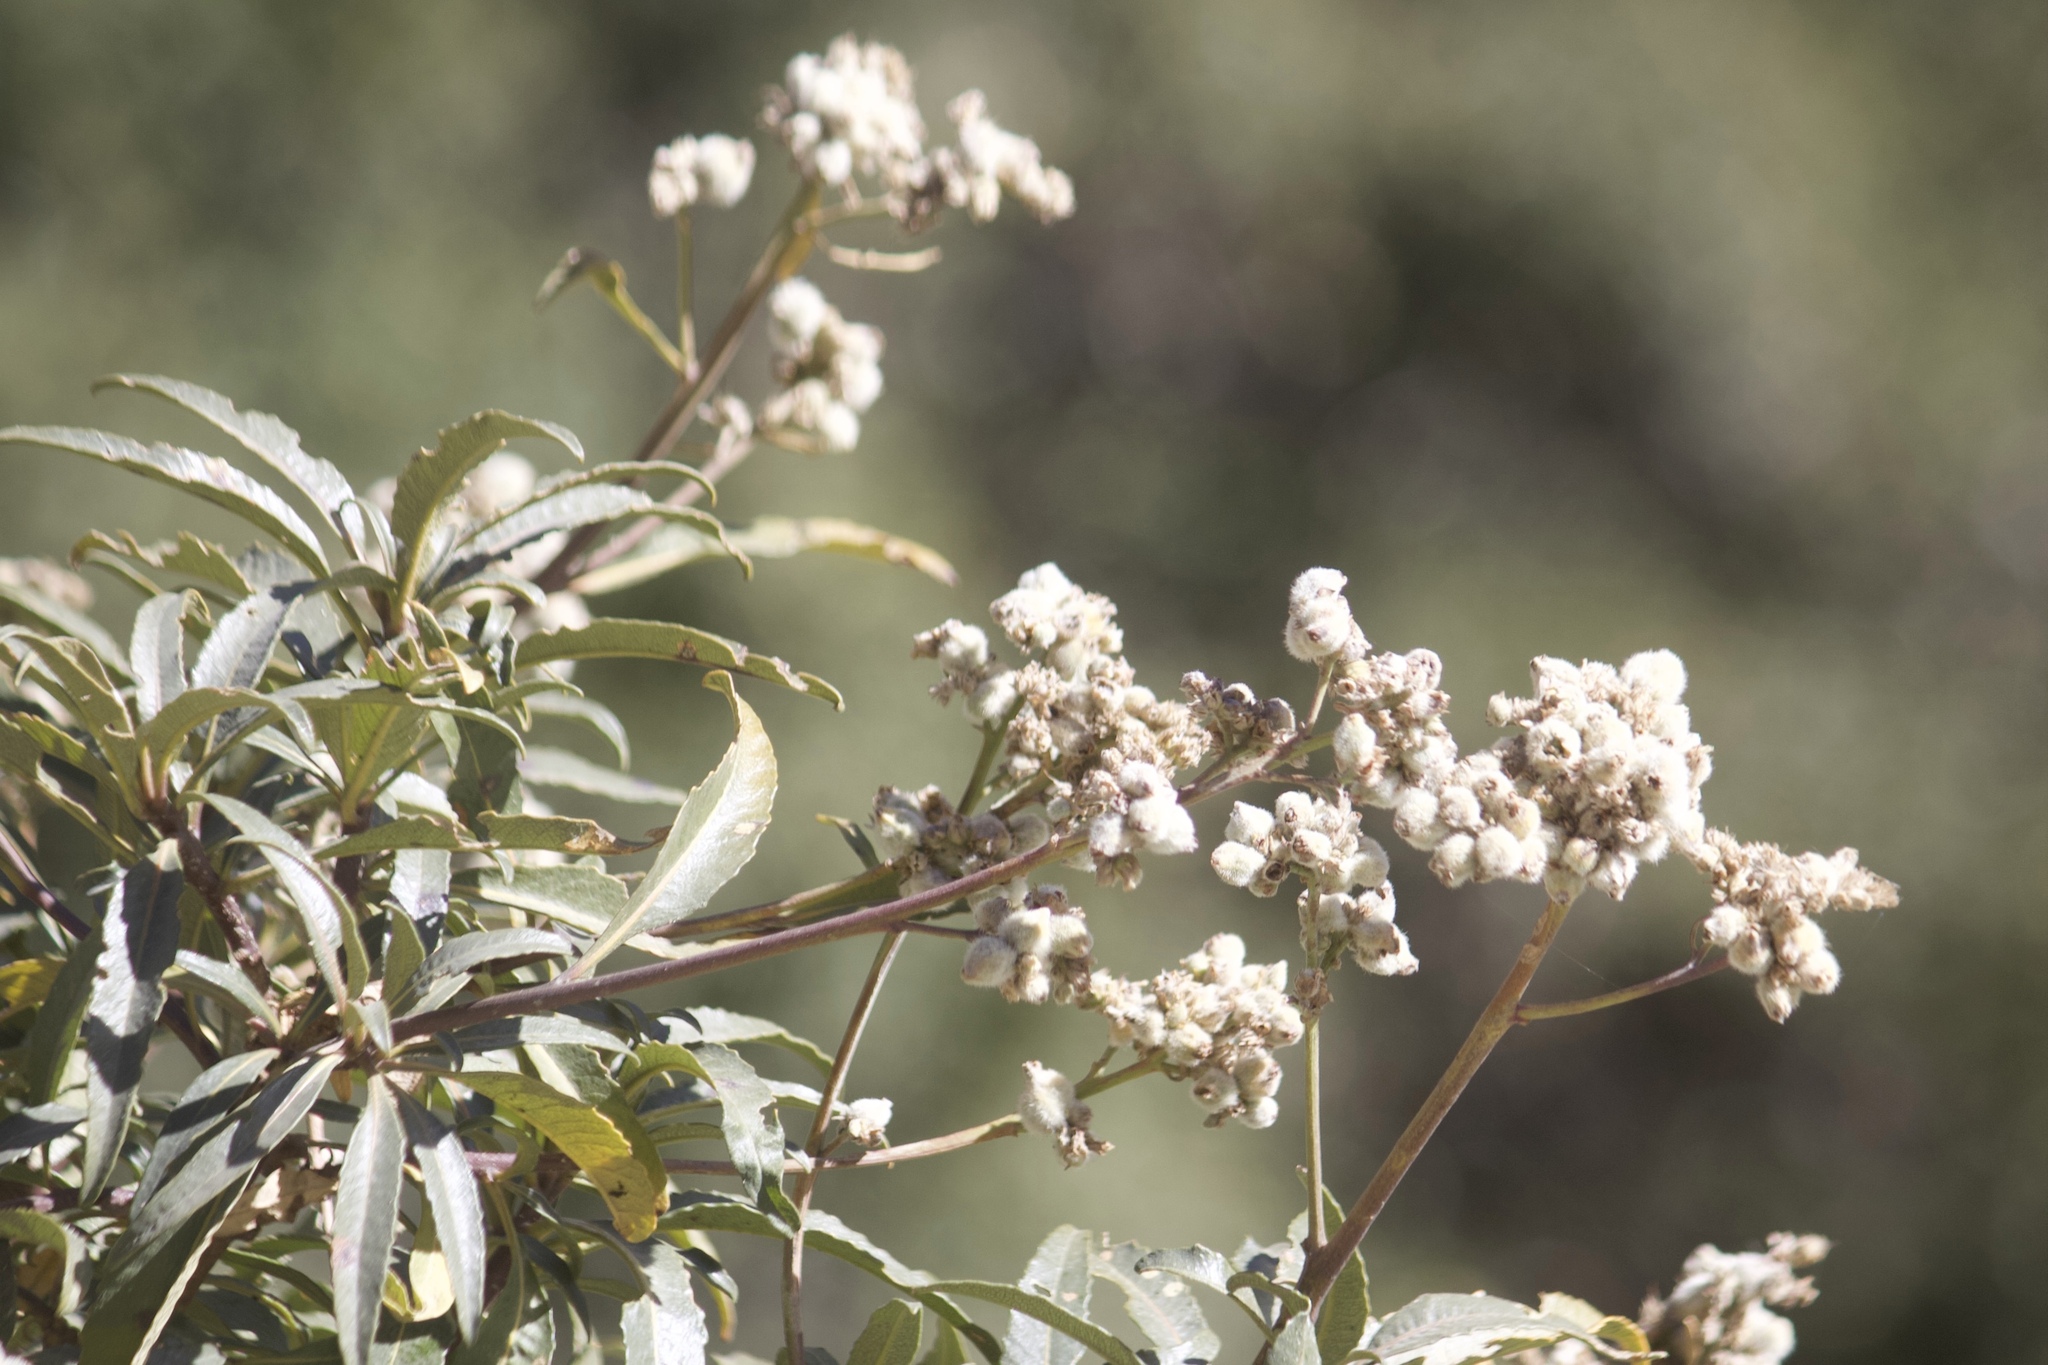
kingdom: Plantae
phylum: Tracheophyta
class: Magnoliopsida
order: Boraginales
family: Namaceae
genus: Eriodictyon
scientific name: Eriodictyon trichocalyx
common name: Hairy yerba-santa
